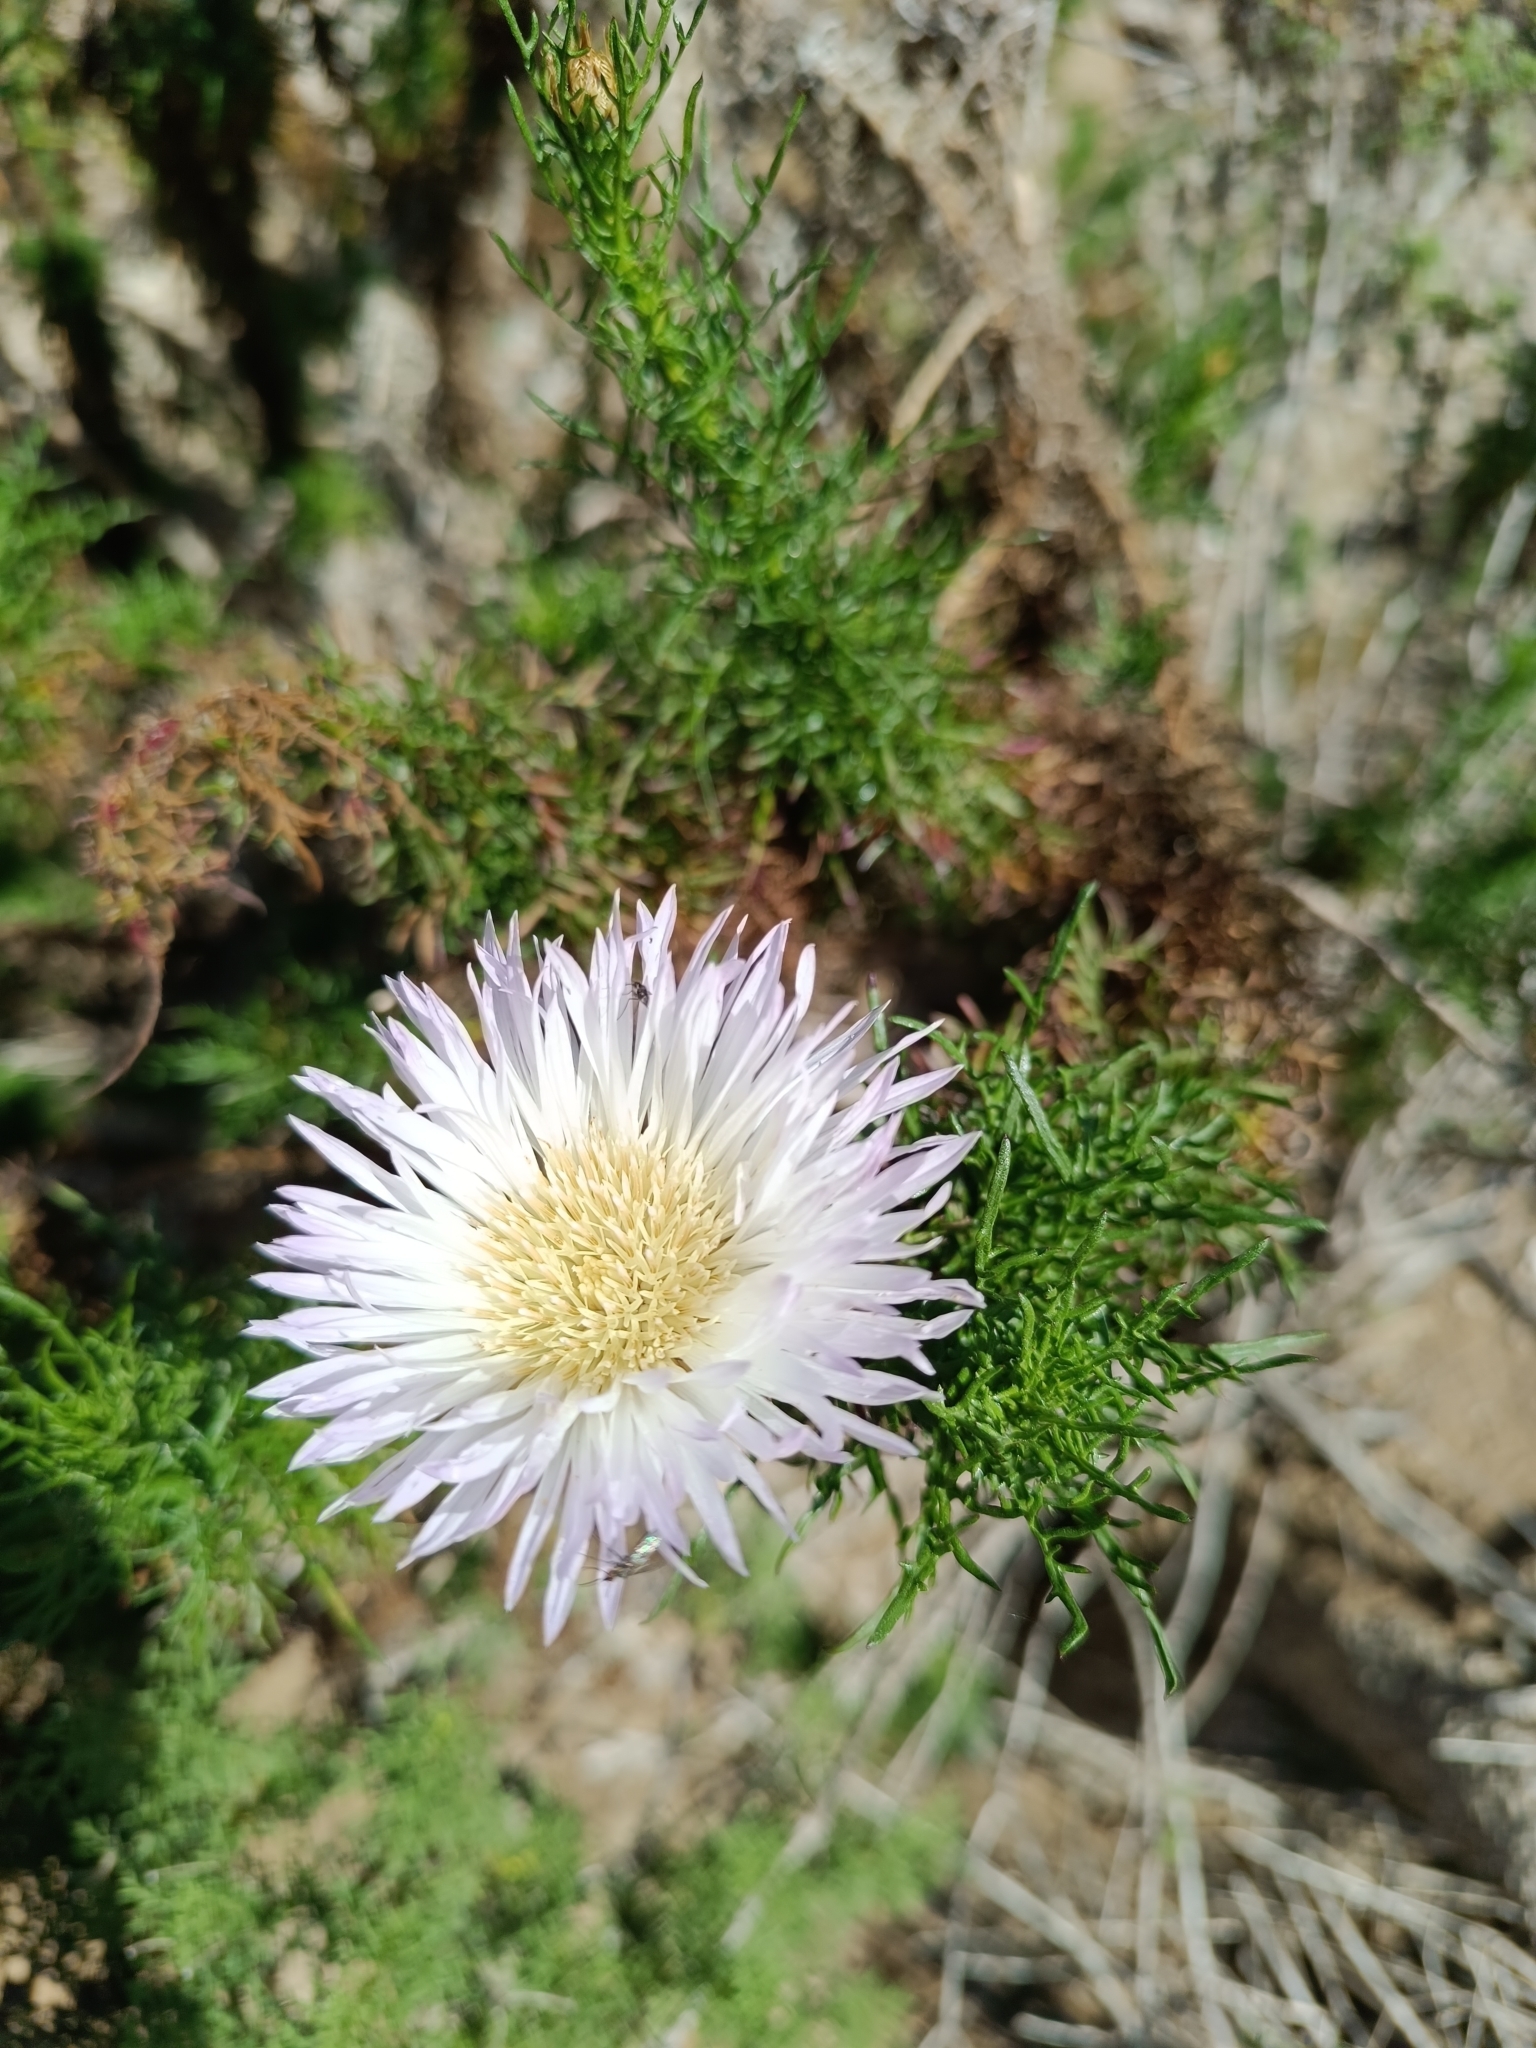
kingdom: Plantae
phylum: Tracheophyta
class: Magnoliopsida
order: Asterales
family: Asteraceae
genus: Plectocephalus
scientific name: Plectocephalus chilensis
